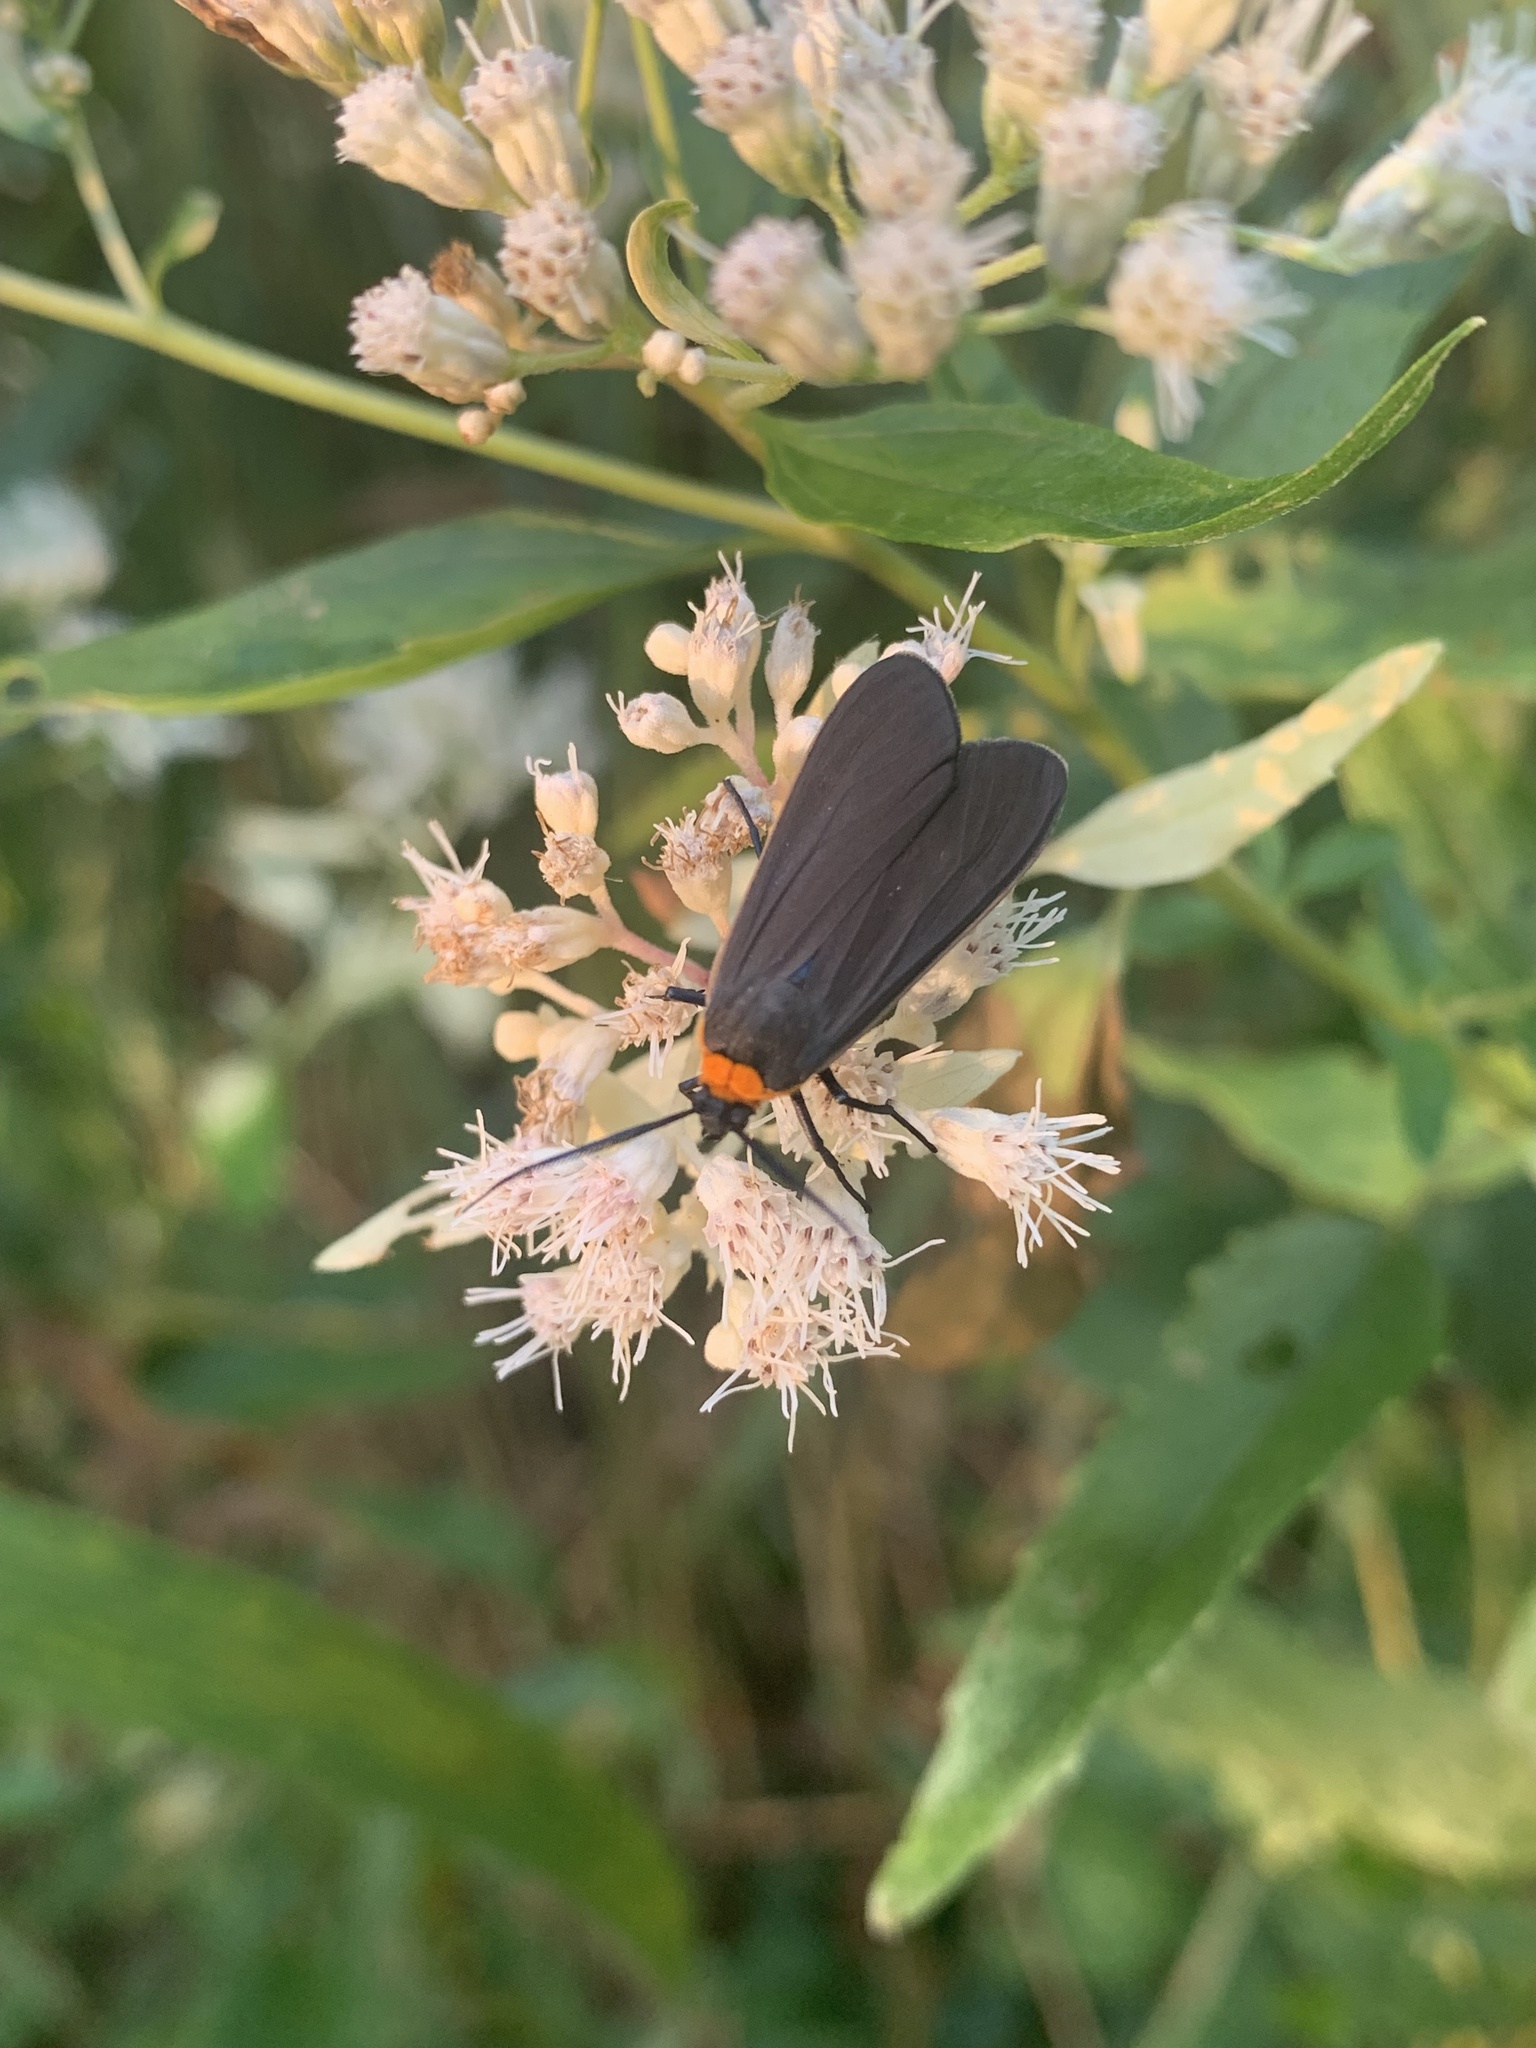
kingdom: Animalia
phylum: Arthropoda
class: Insecta
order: Lepidoptera
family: Erebidae
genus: Cisseps
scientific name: Cisseps fulvicollis
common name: Yellow-collared scape moth
